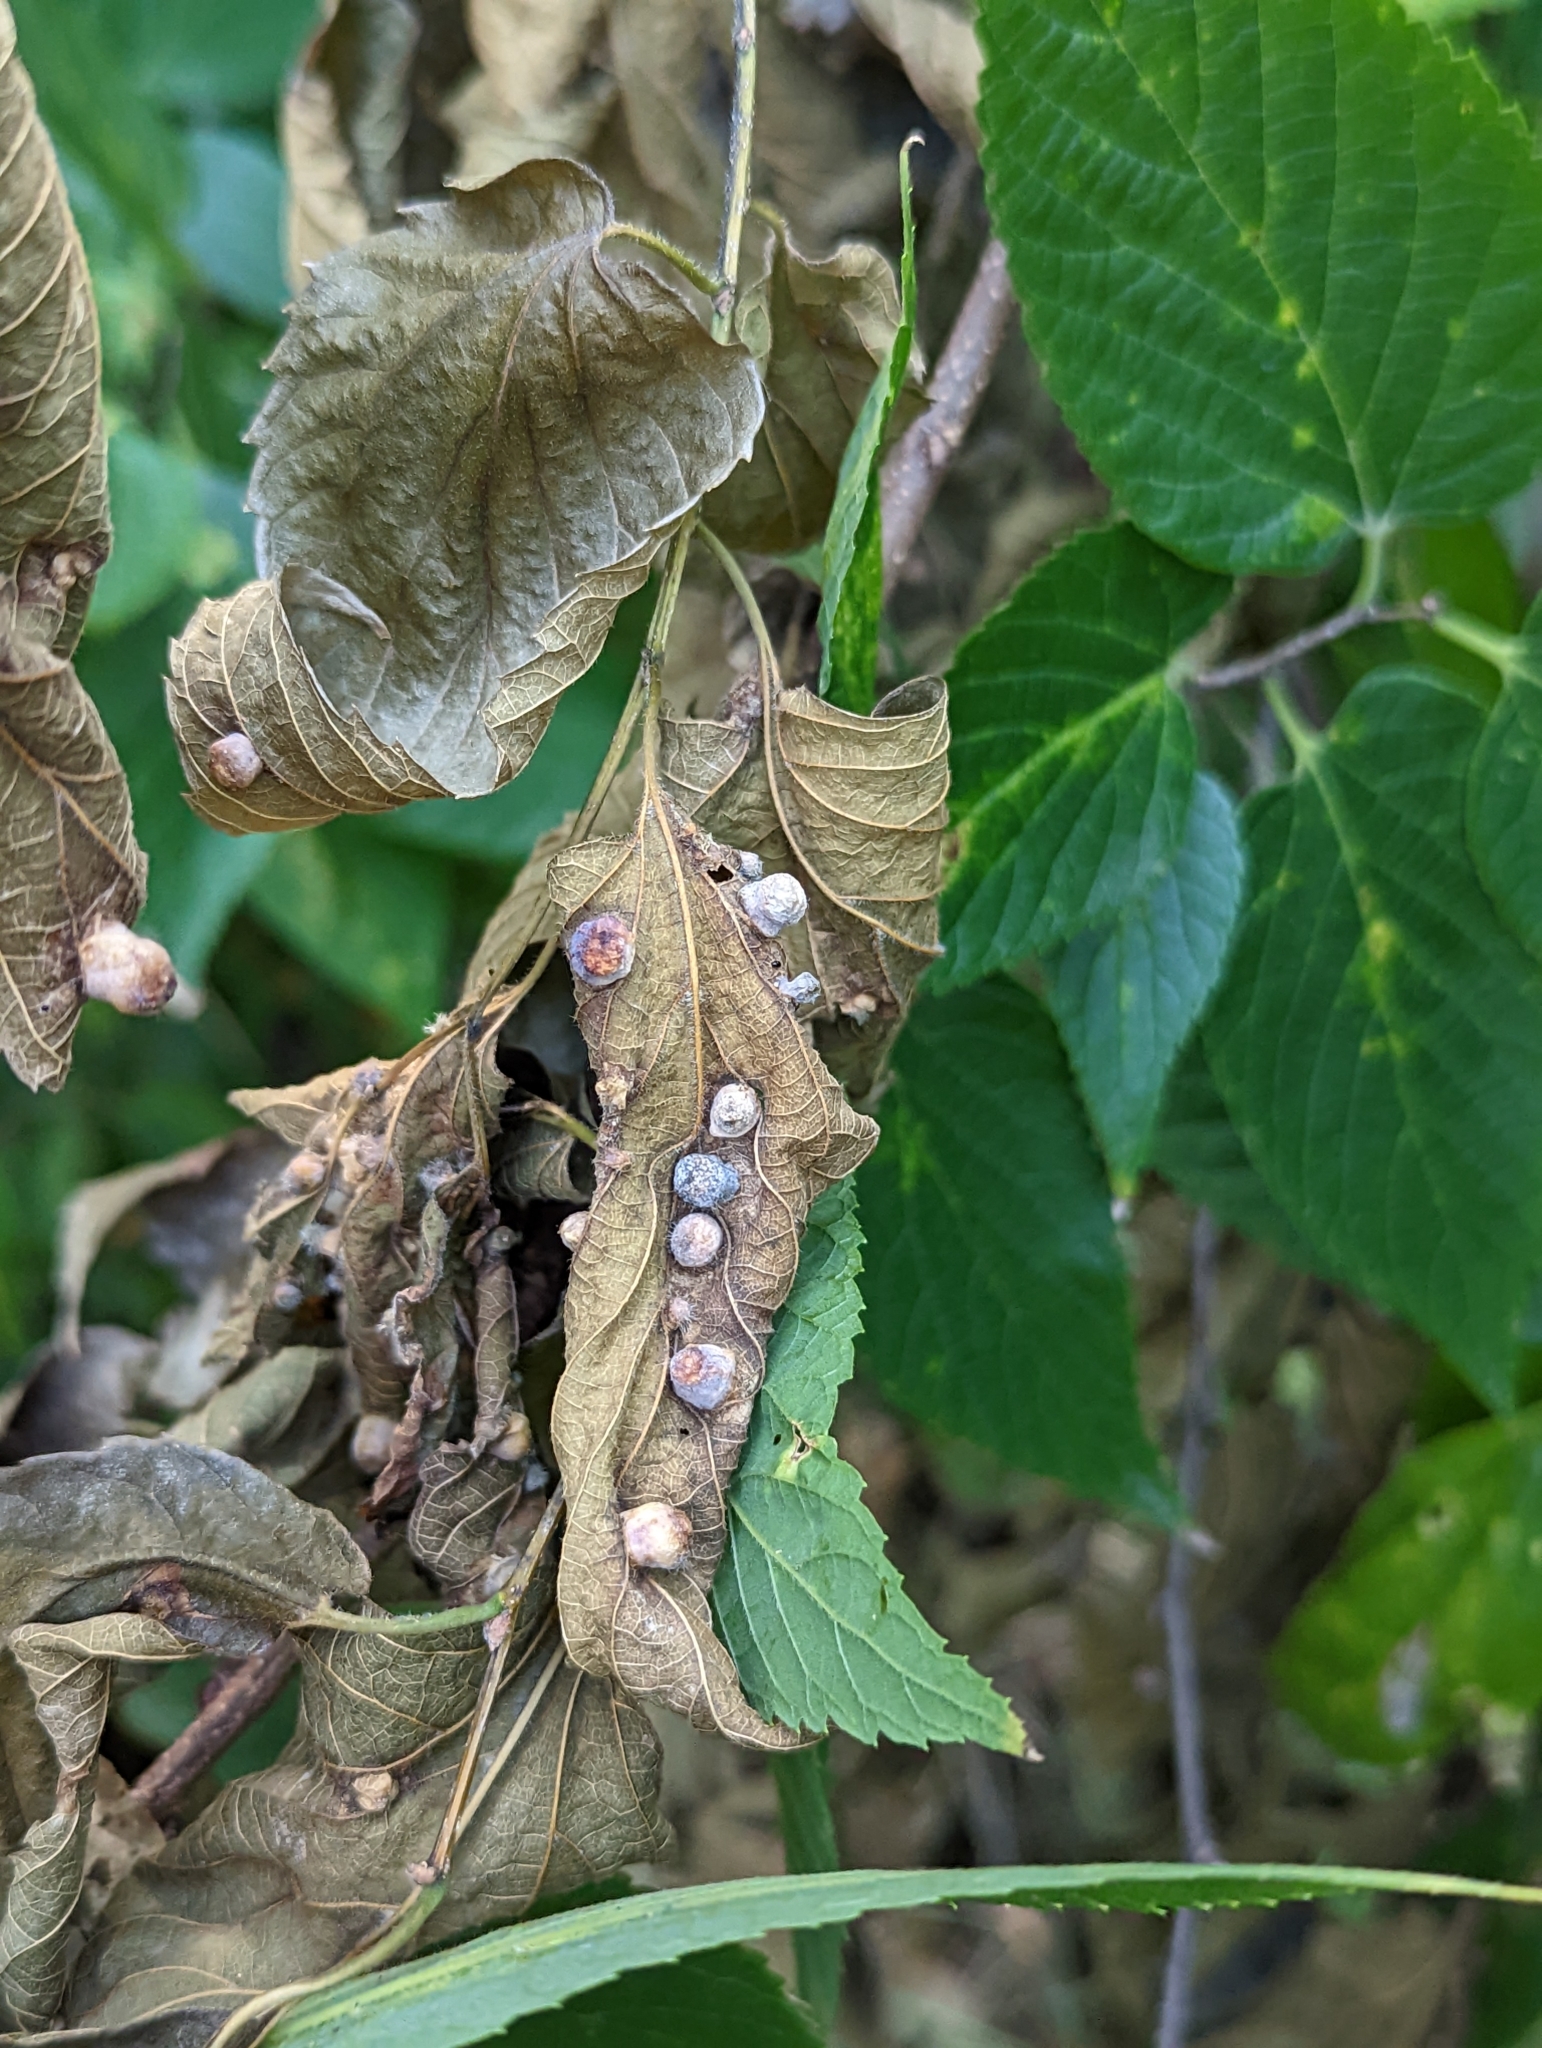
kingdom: Animalia
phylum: Arthropoda
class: Insecta
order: Hemiptera
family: Aphalaridae
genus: Pachypsylla
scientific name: Pachypsylla celtidismamma
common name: Hackberry nipplegall psyllid
